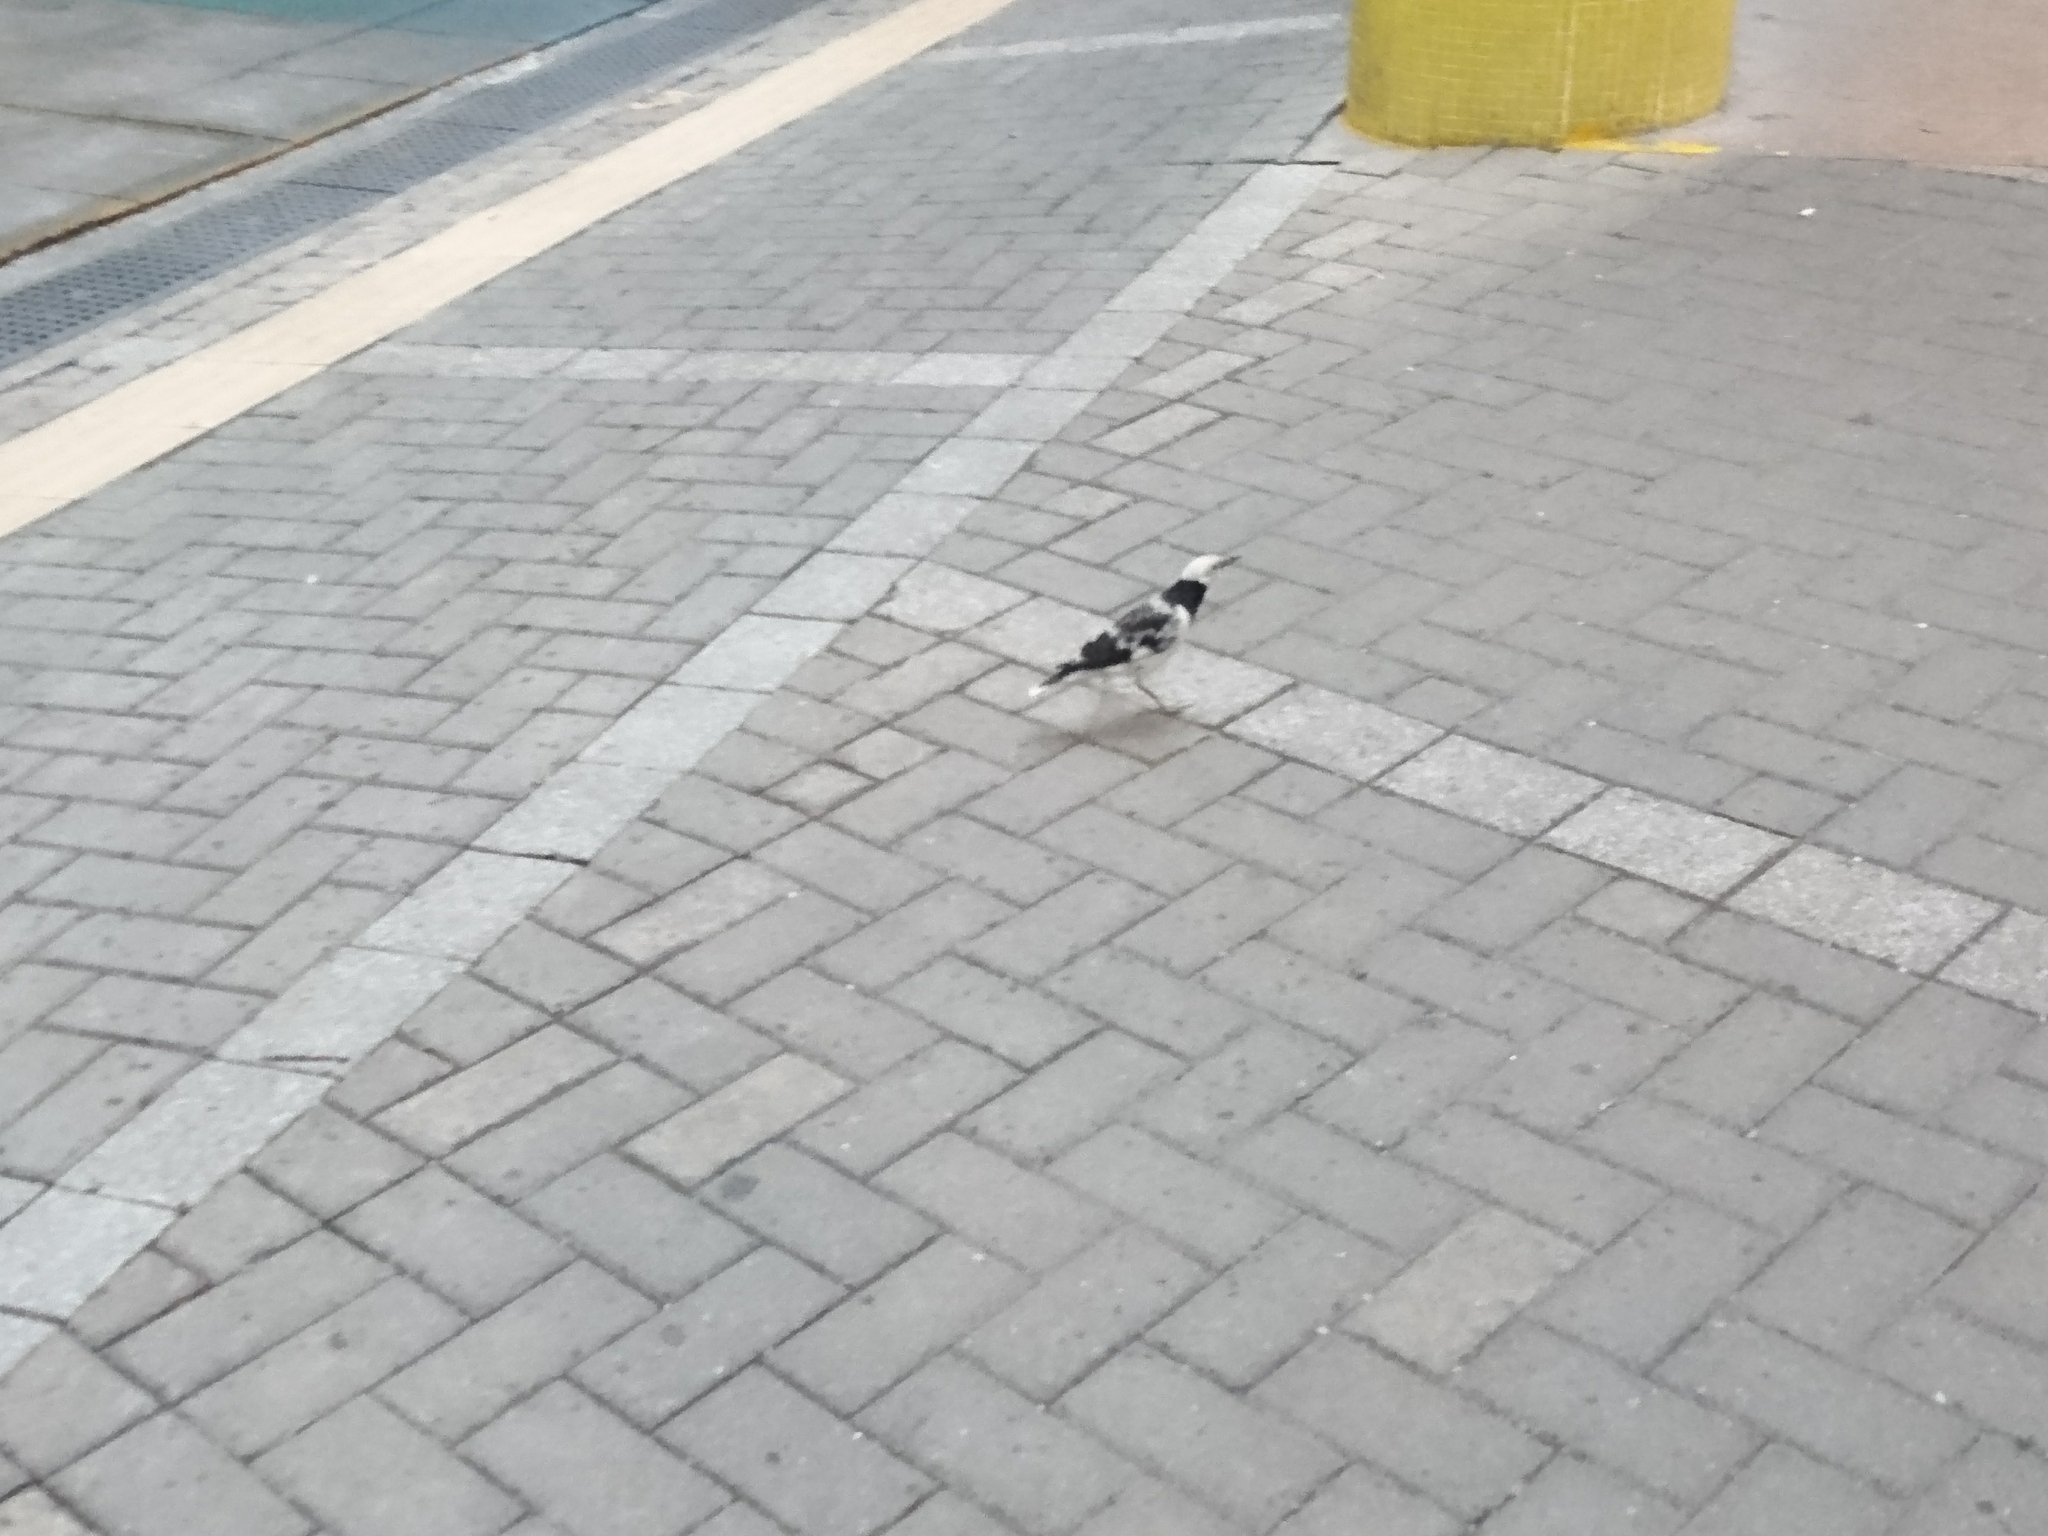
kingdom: Animalia
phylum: Chordata
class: Aves
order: Passeriformes
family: Sturnidae
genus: Gracupica
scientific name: Gracupica nigricollis
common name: Black-collared starling
